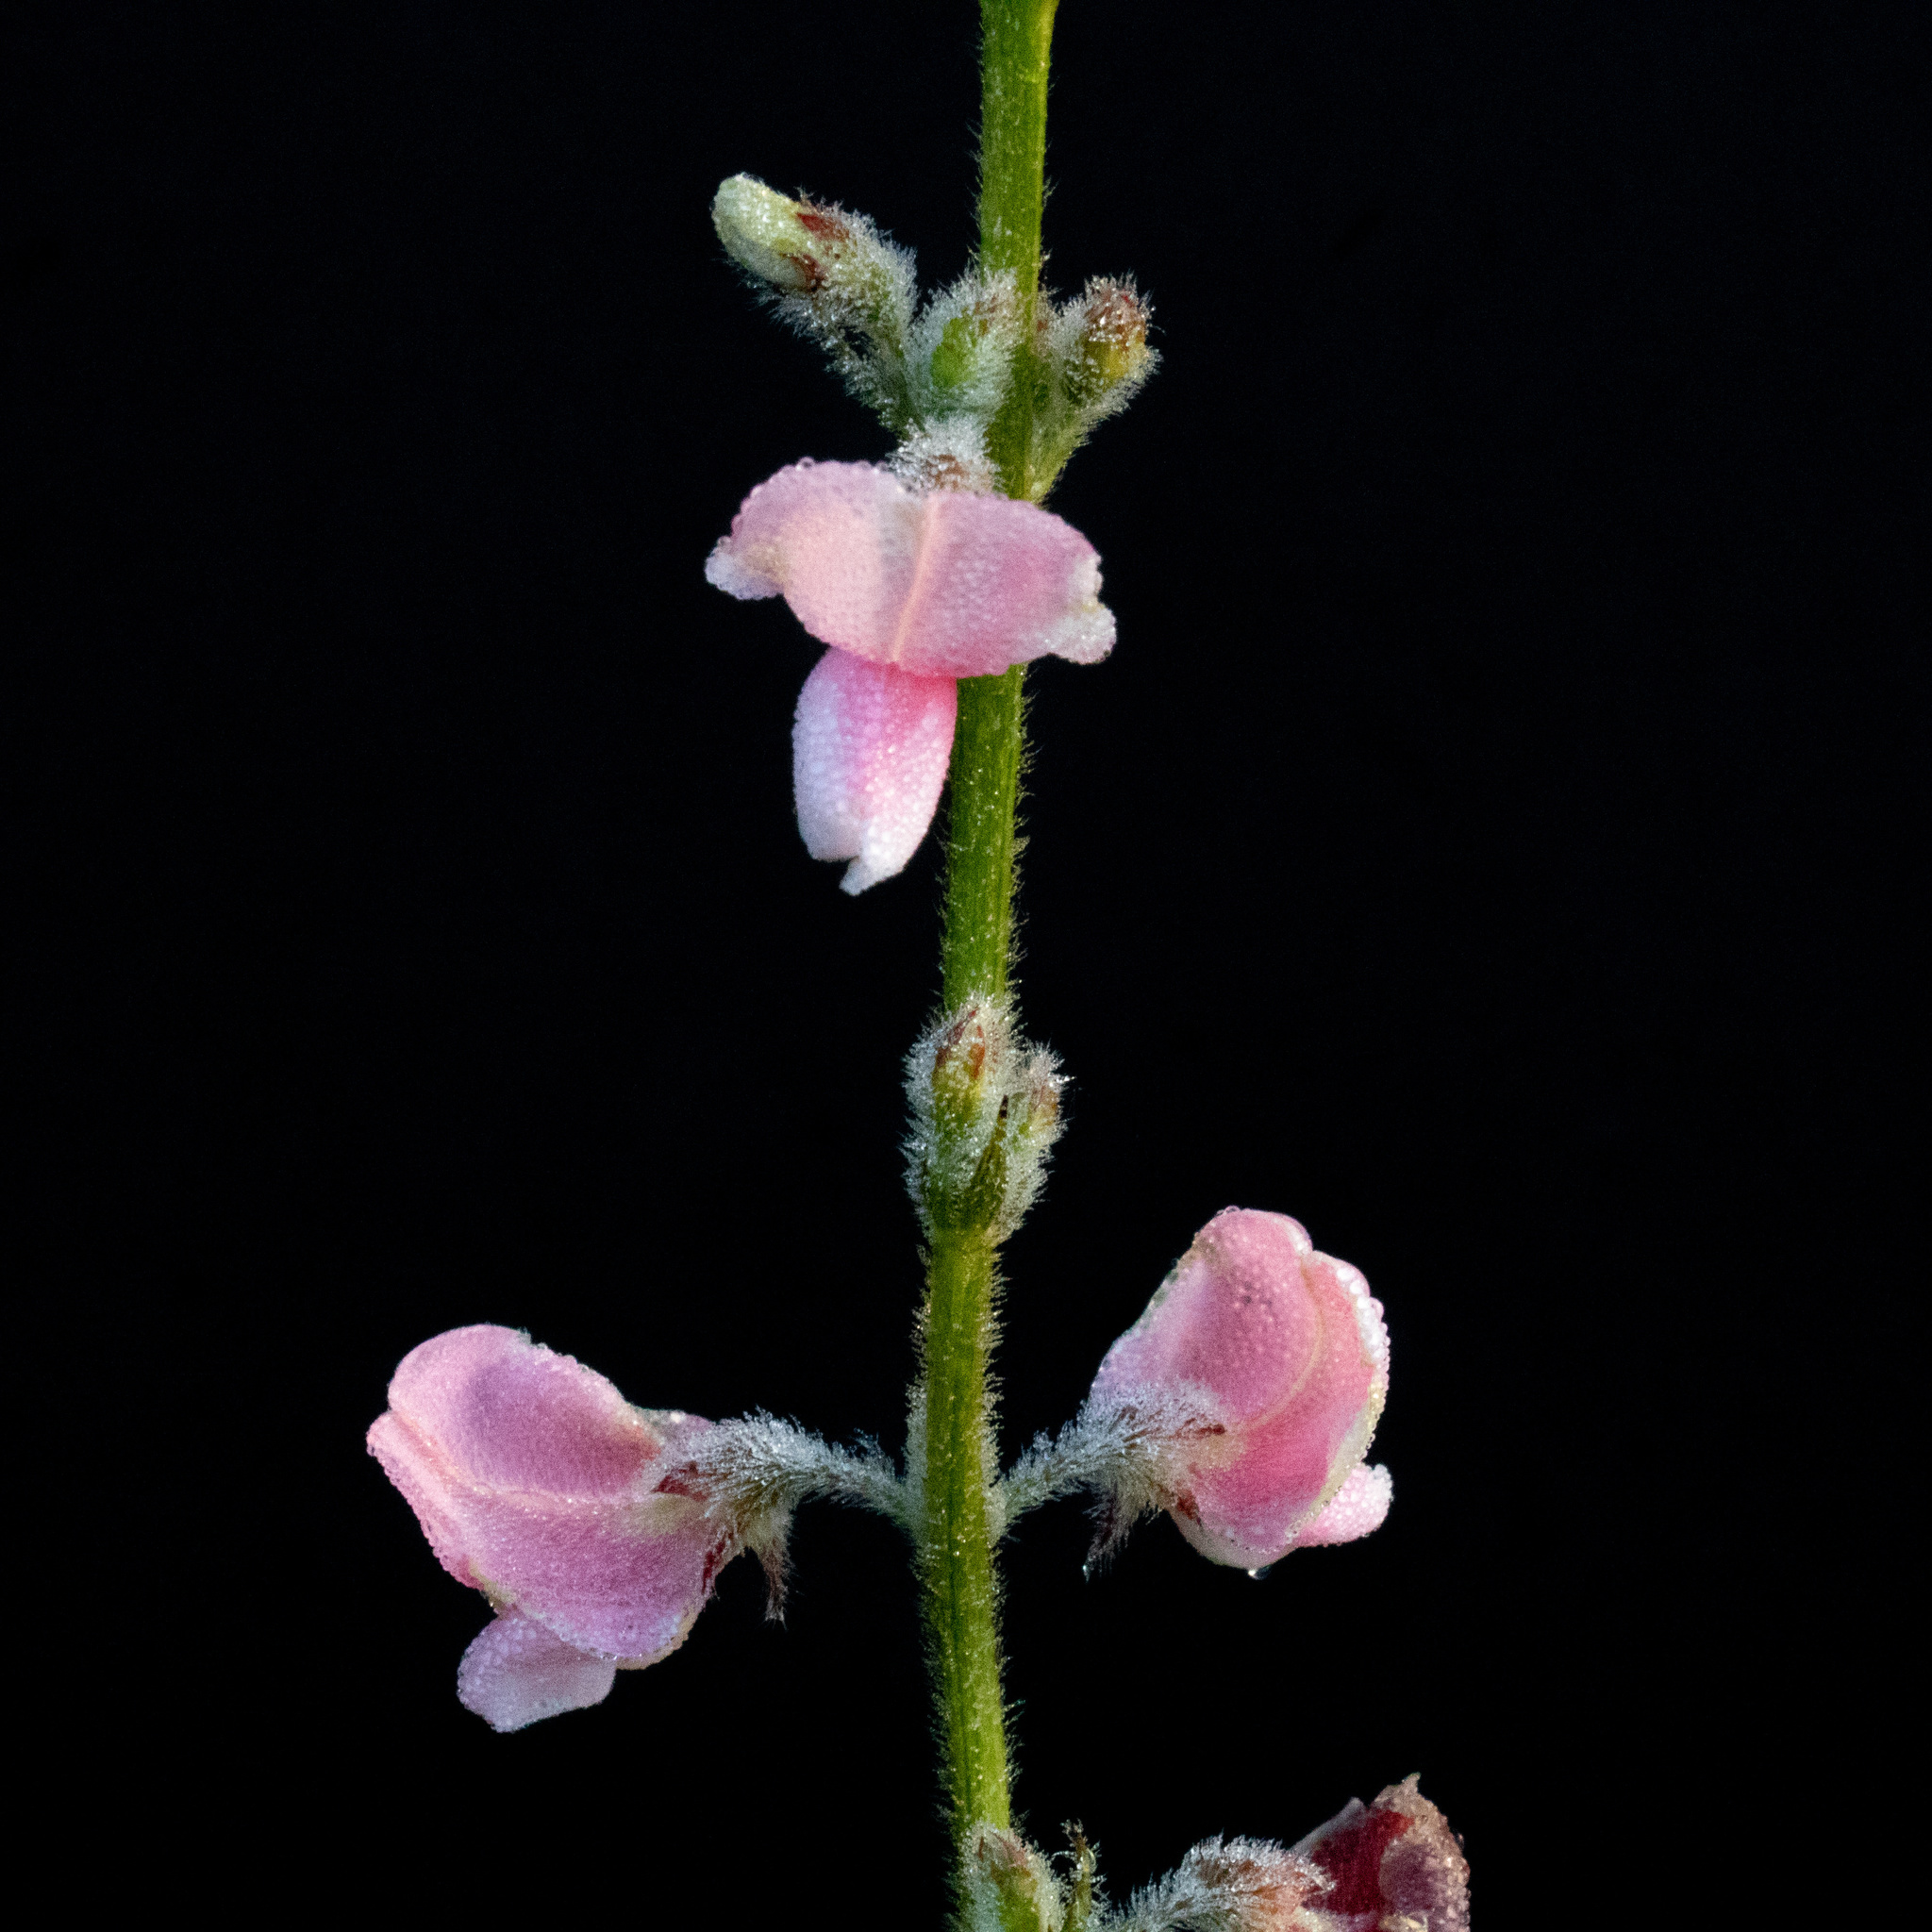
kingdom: Plantae
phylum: Tracheophyta
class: Magnoliopsida
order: Fabales
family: Fabaceae
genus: Tephrosia
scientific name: Tephrosia onobrychoides
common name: Multi-bloom hoary-pea
